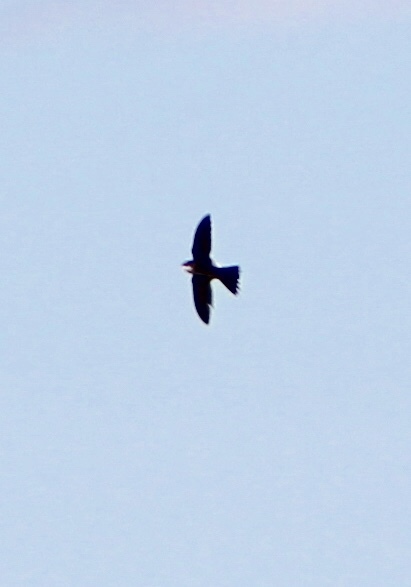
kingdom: Animalia
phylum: Chordata
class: Aves
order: Apodiformes
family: Apodidae
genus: Aeronautes
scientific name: Aeronautes saxatalis
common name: White-throated swift
